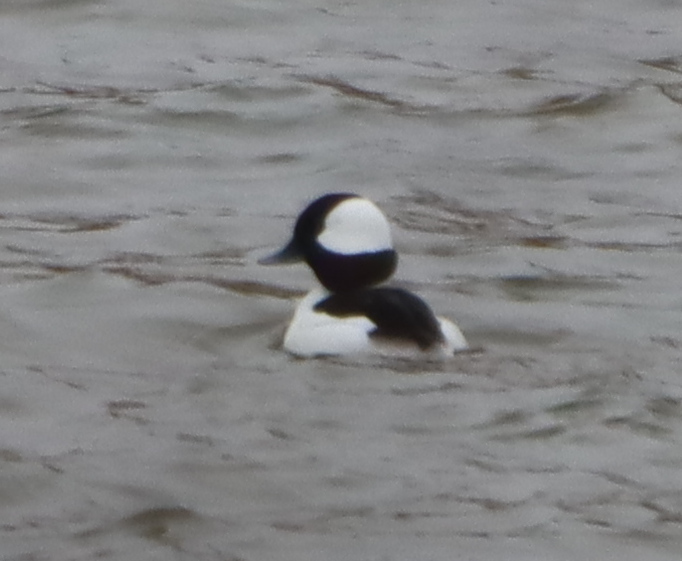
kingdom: Animalia
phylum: Chordata
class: Aves
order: Anseriformes
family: Anatidae
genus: Bucephala
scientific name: Bucephala albeola
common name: Bufflehead
